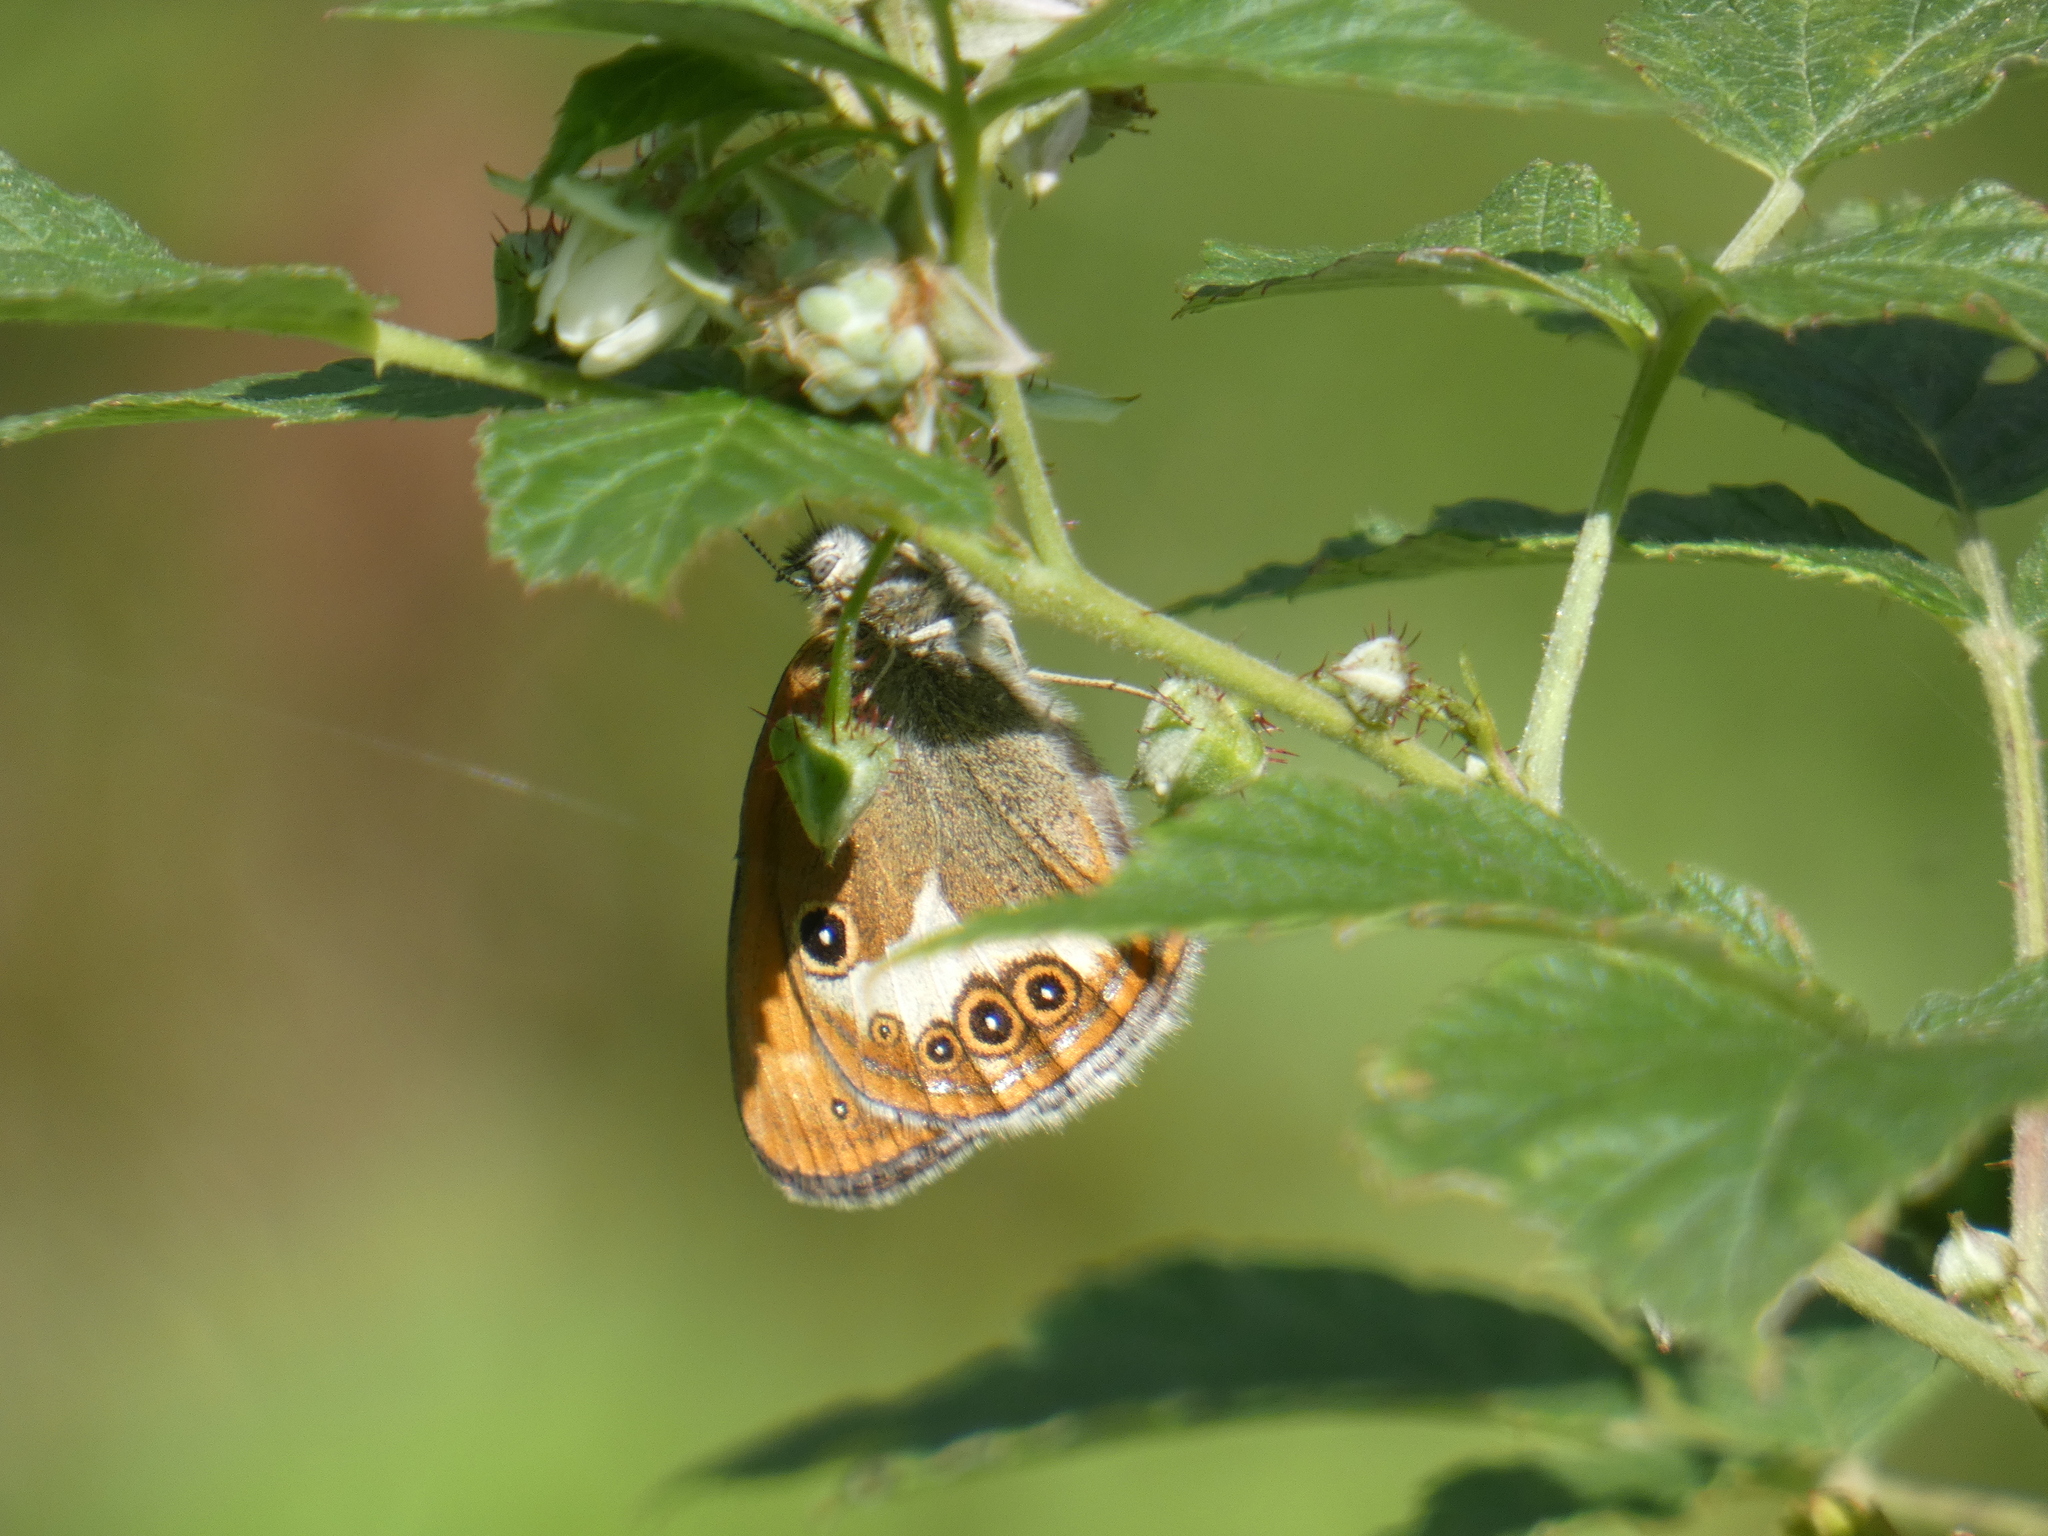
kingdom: Animalia
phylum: Arthropoda
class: Insecta
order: Lepidoptera
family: Nymphalidae
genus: Coenonympha
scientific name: Coenonympha arcania
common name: Pearly heath
